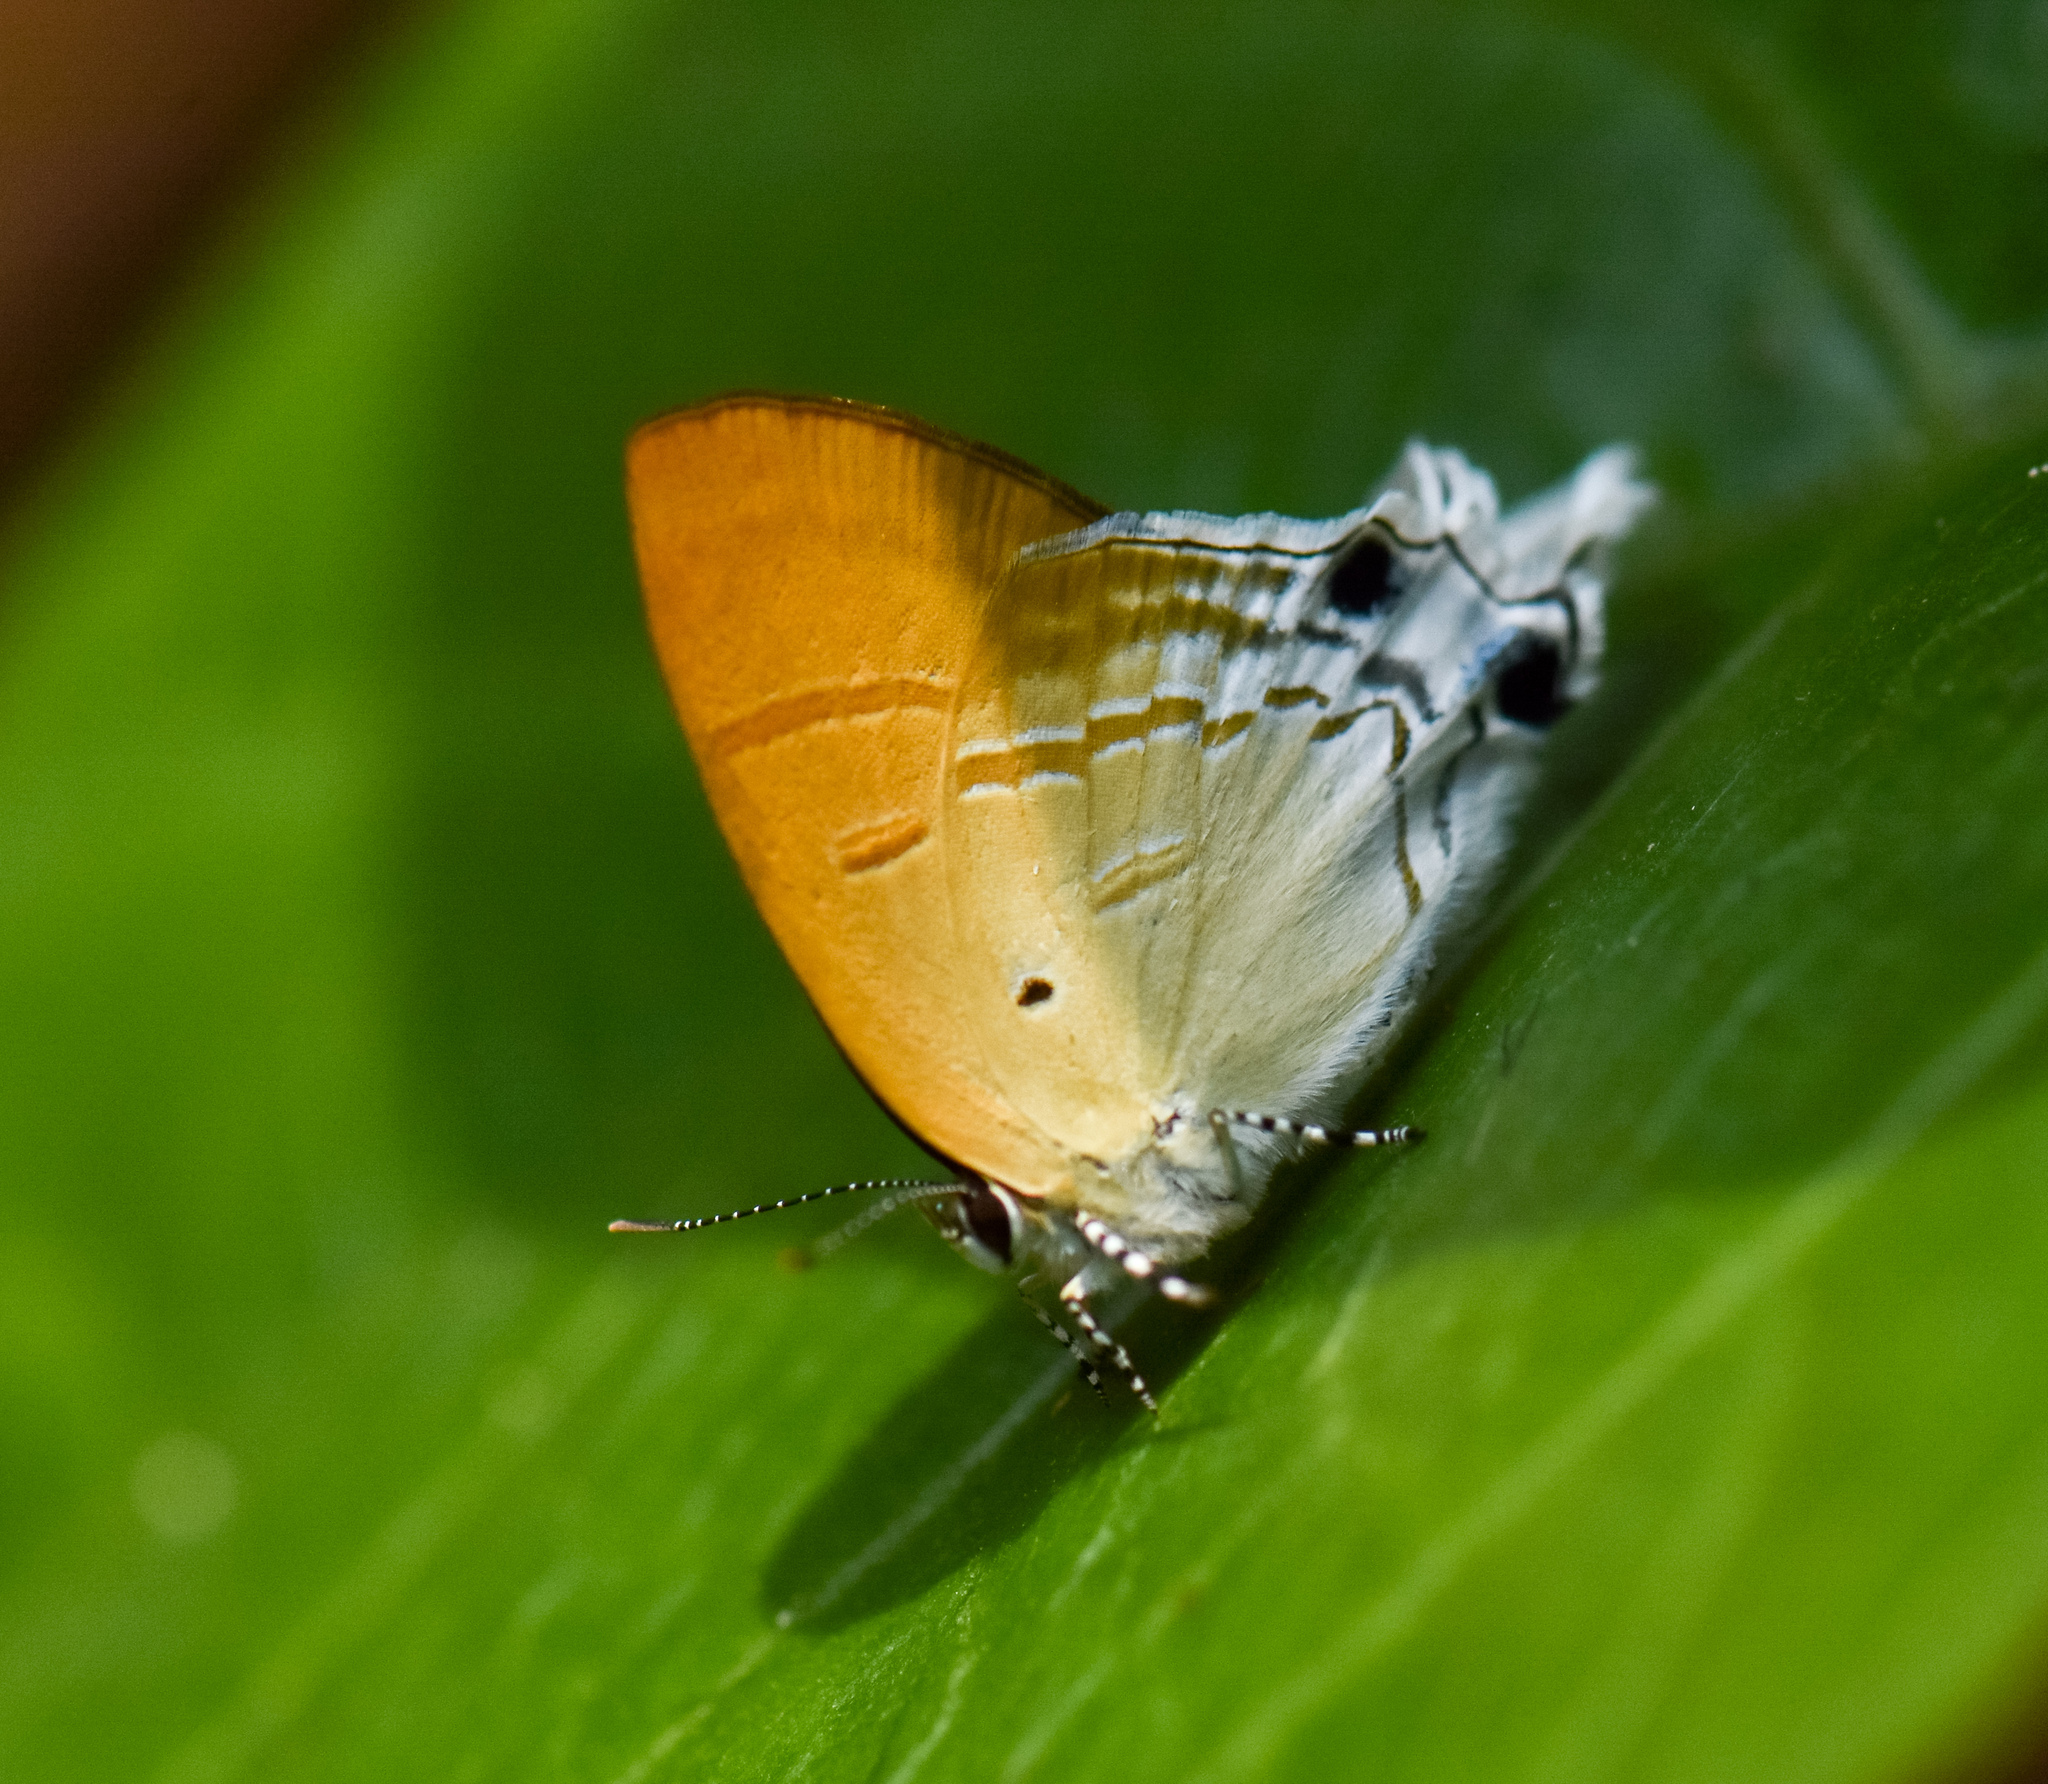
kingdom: Animalia
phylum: Arthropoda
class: Insecta
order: Lepidoptera
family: Lycaenidae
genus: Zeltus
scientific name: Zeltus amasa
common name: Fluffy tit
